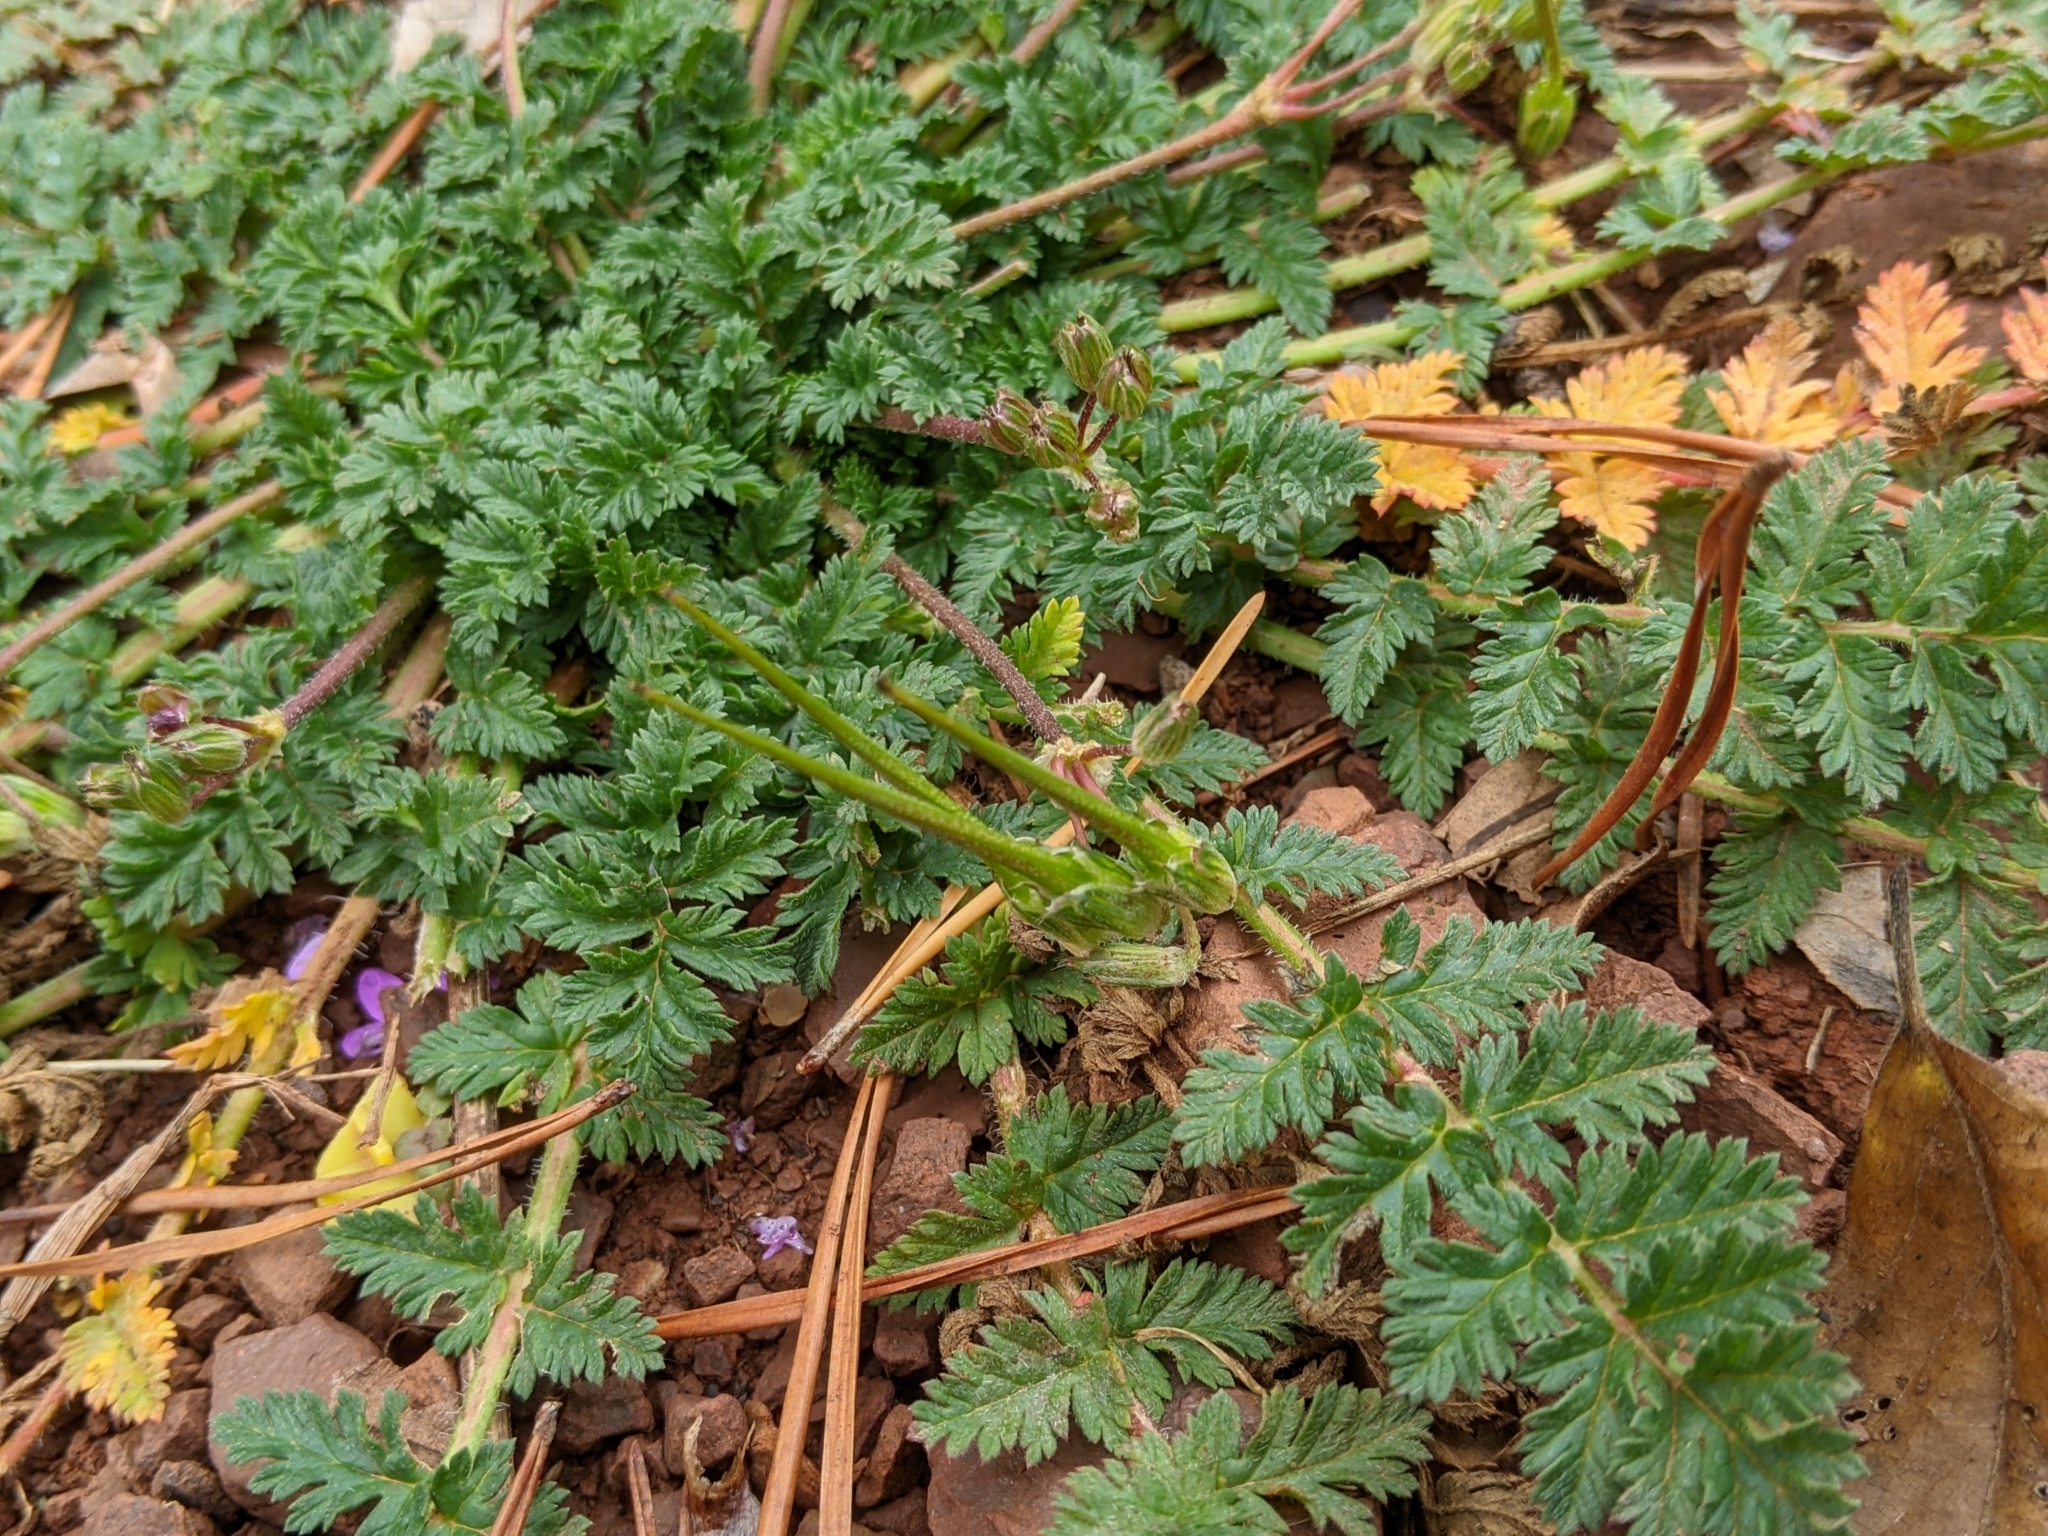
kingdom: Plantae
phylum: Tracheophyta
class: Magnoliopsida
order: Geraniales
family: Geraniaceae
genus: Erodium
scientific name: Erodium cicutarium
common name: Common stork's-bill
